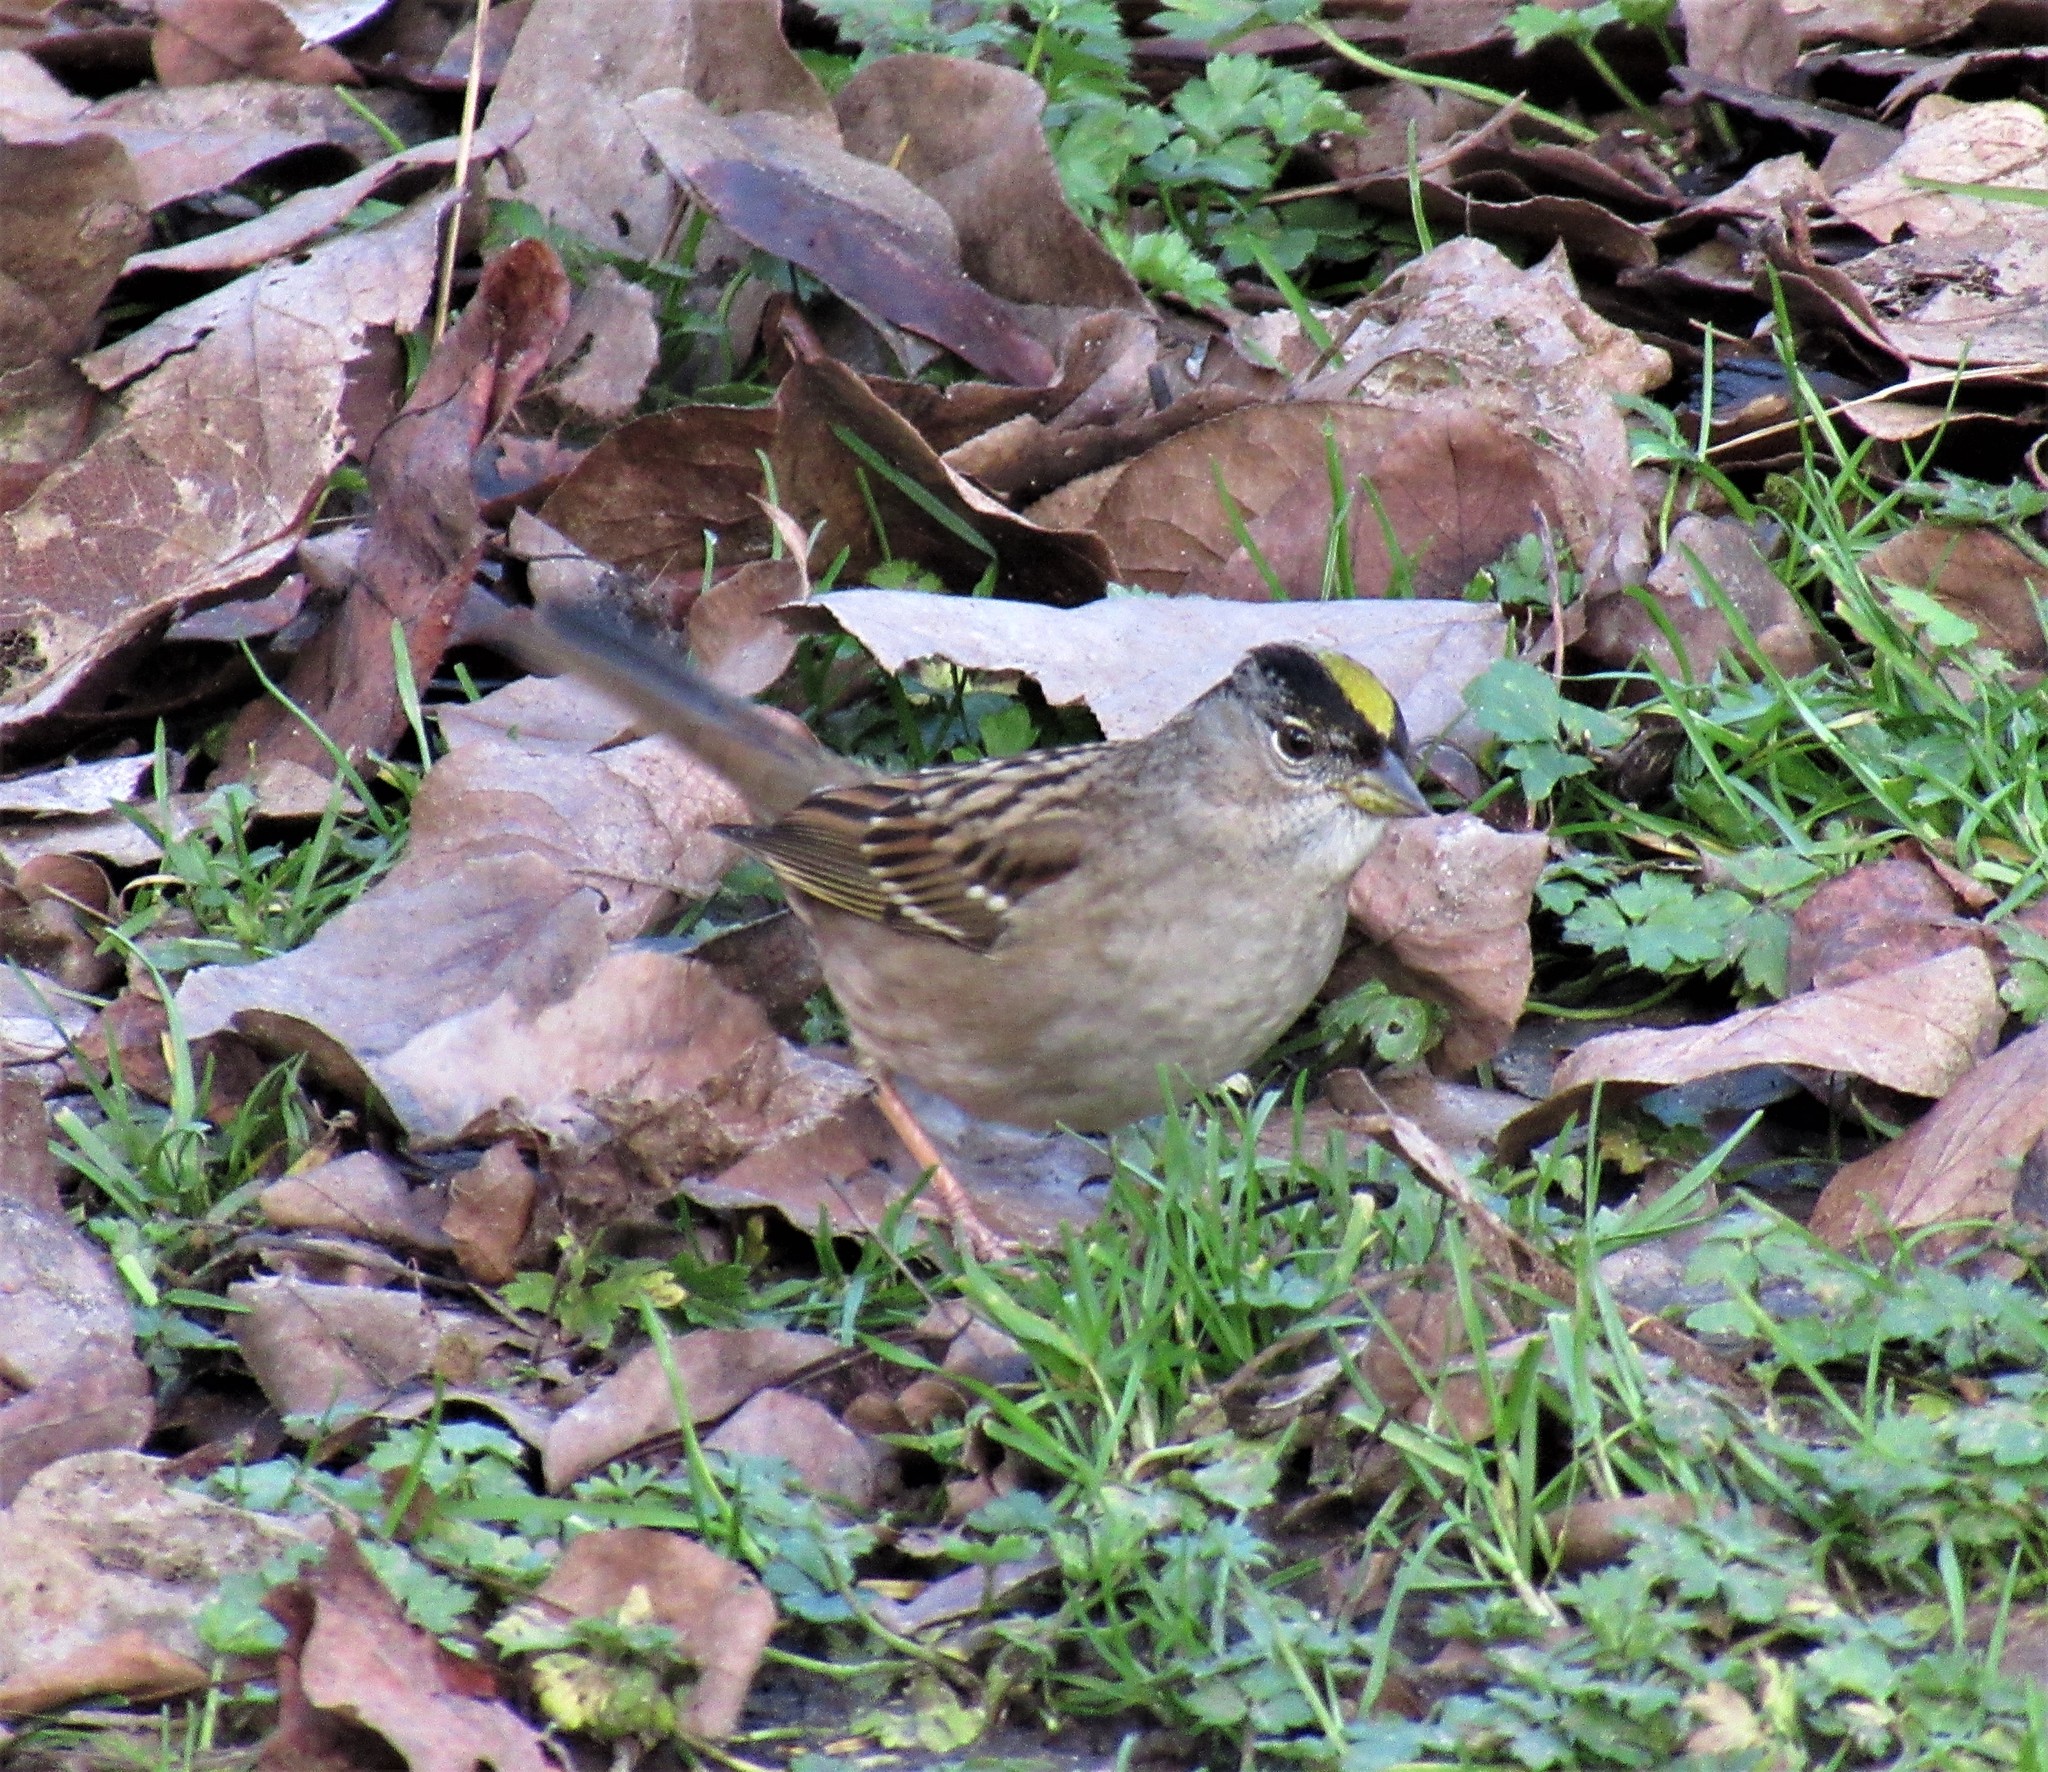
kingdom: Animalia
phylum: Chordata
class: Aves
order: Passeriformes
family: Passerellidae
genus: Zonotrichia
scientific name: Zonotrichia atricapilla
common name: Golden-crowned sparrow
